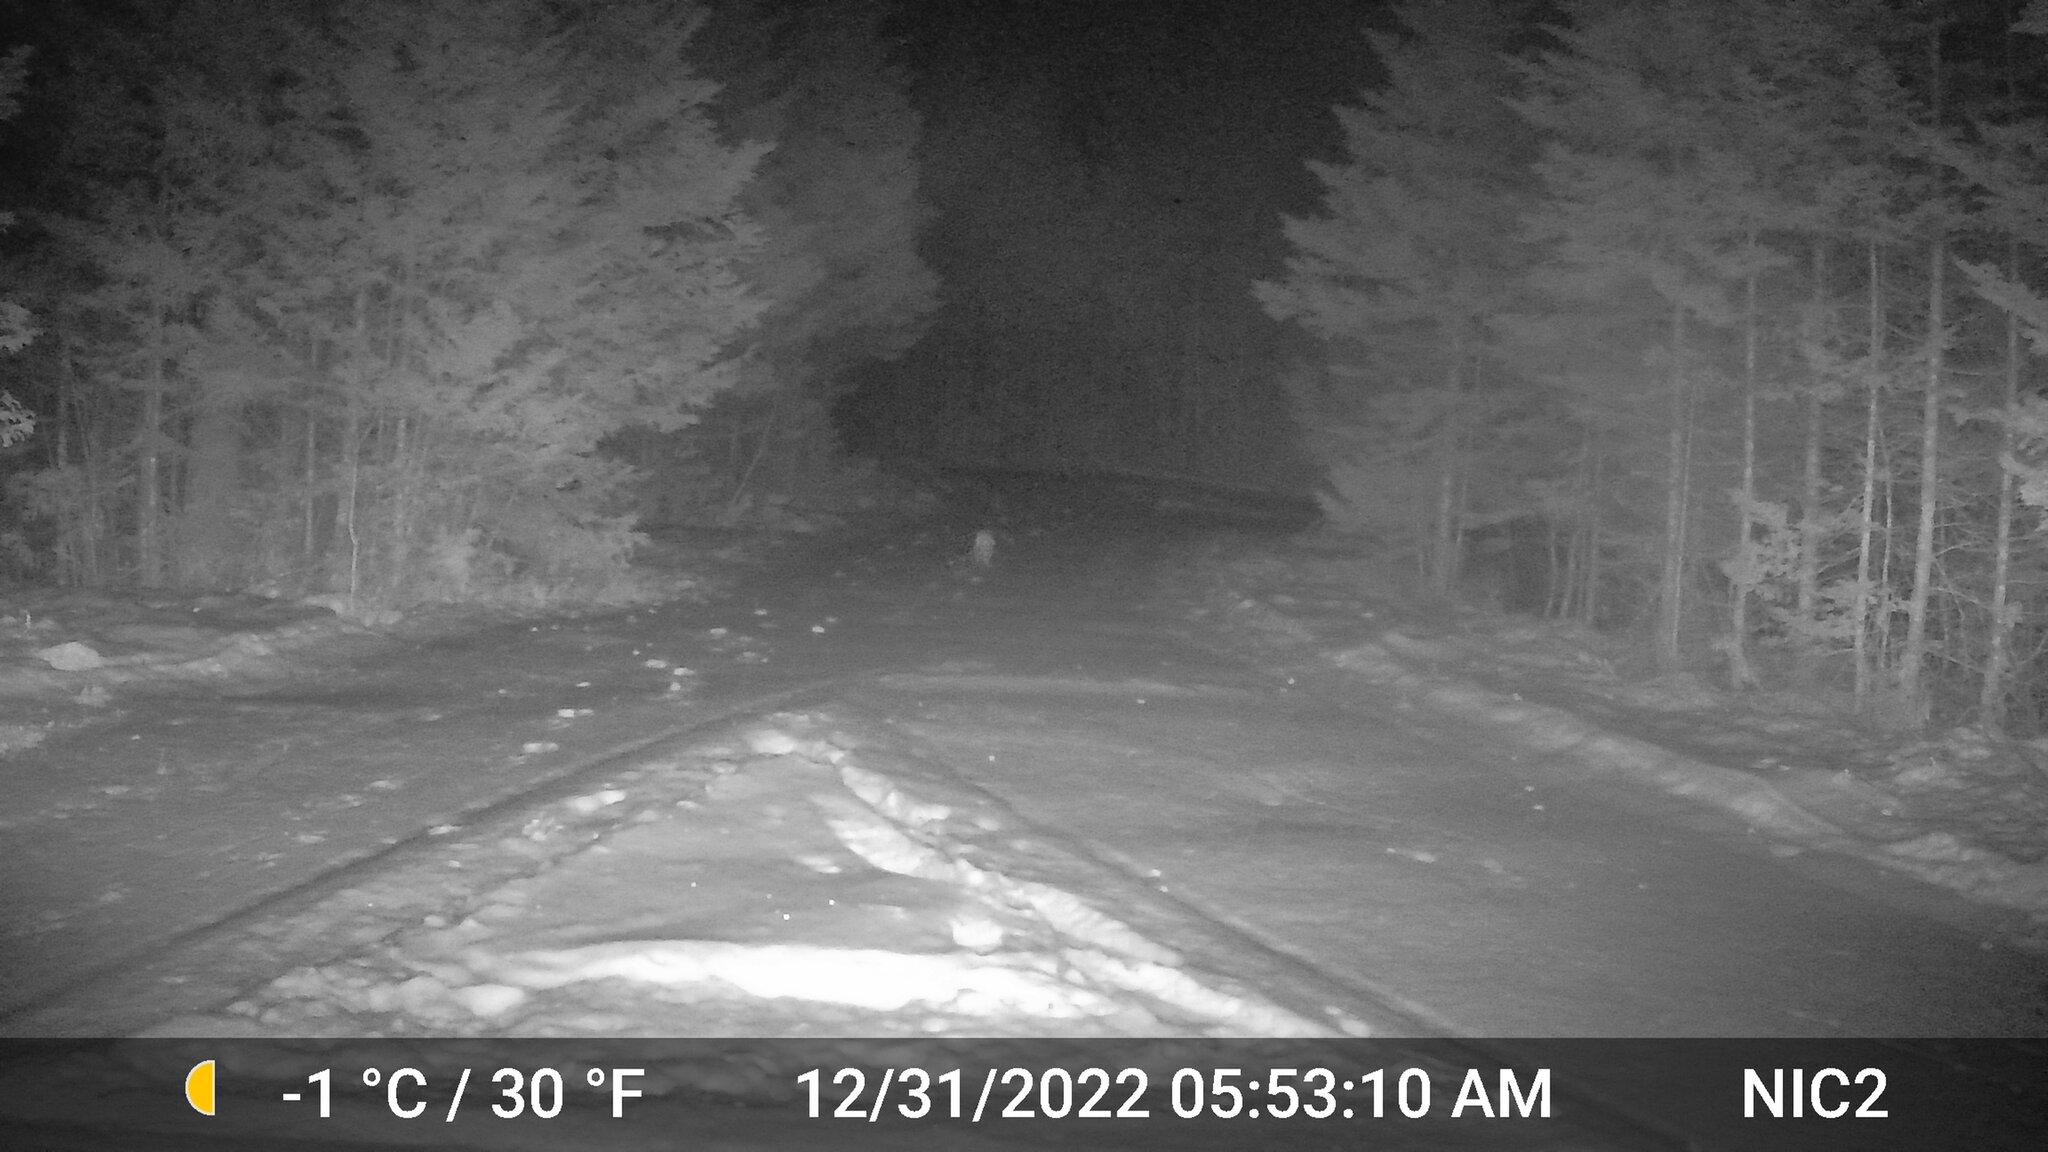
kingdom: Animalia
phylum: Chordata
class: Mammalia
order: Lagomorpha
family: Leporidae
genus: Lepus
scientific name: Lepus americanus
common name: Snowshoe hare
